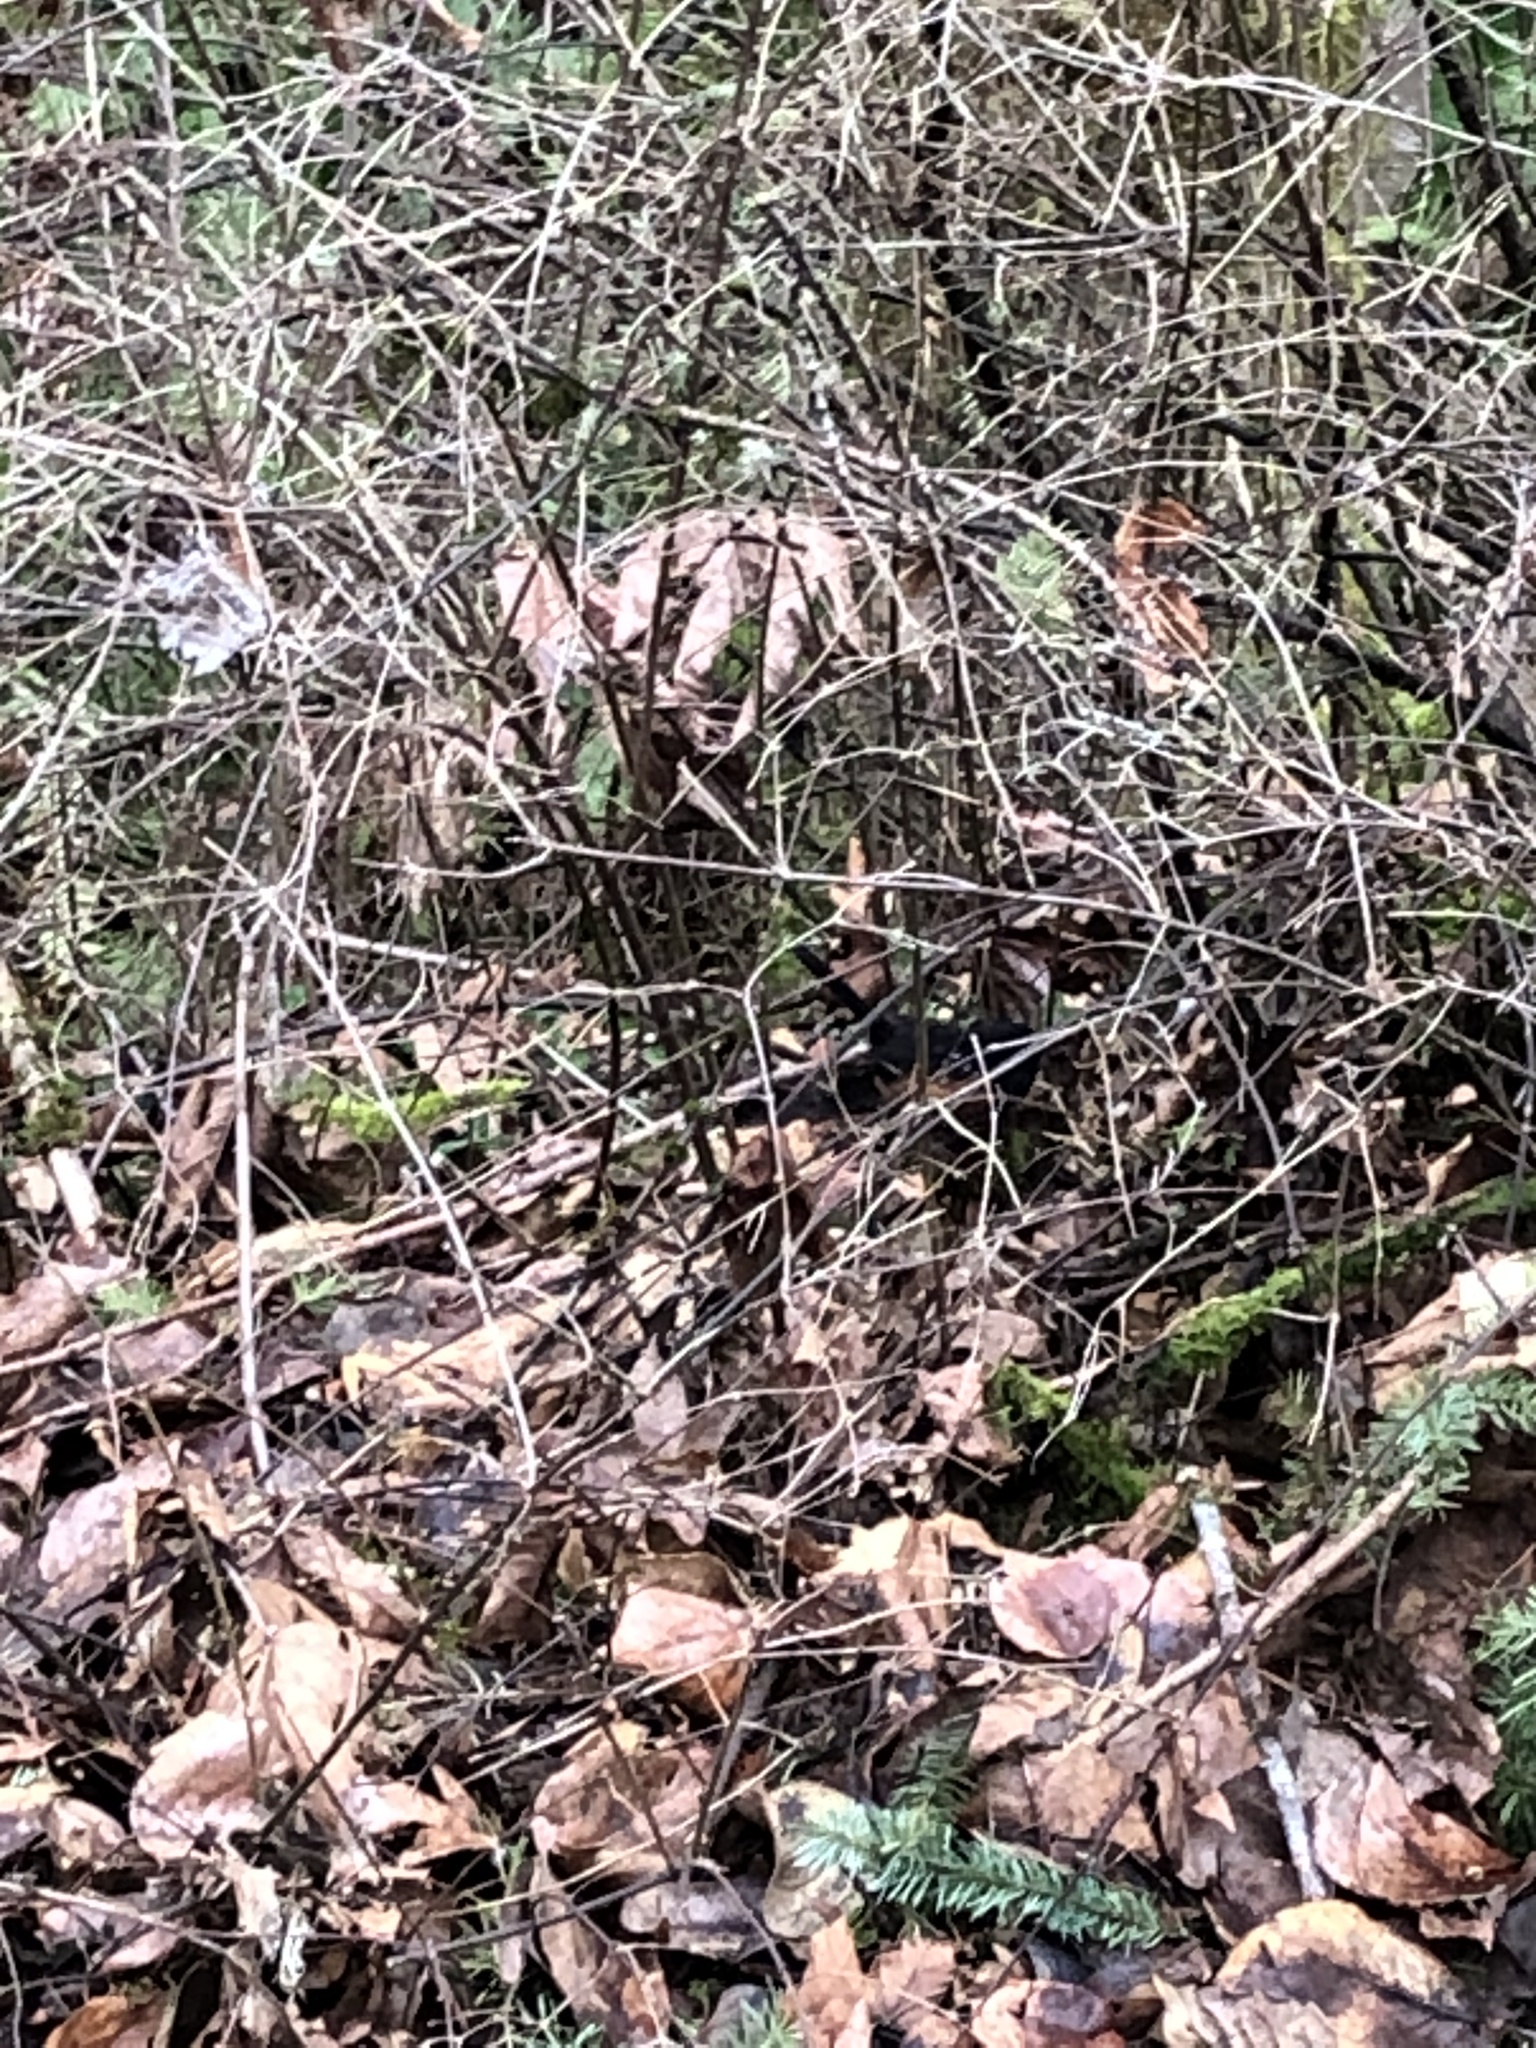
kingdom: Animalia
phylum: Chordata
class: Aves
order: Passeriformes
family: Passerellidae
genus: Pipilo
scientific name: Pipilo maculatus
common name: Spotted towhee
